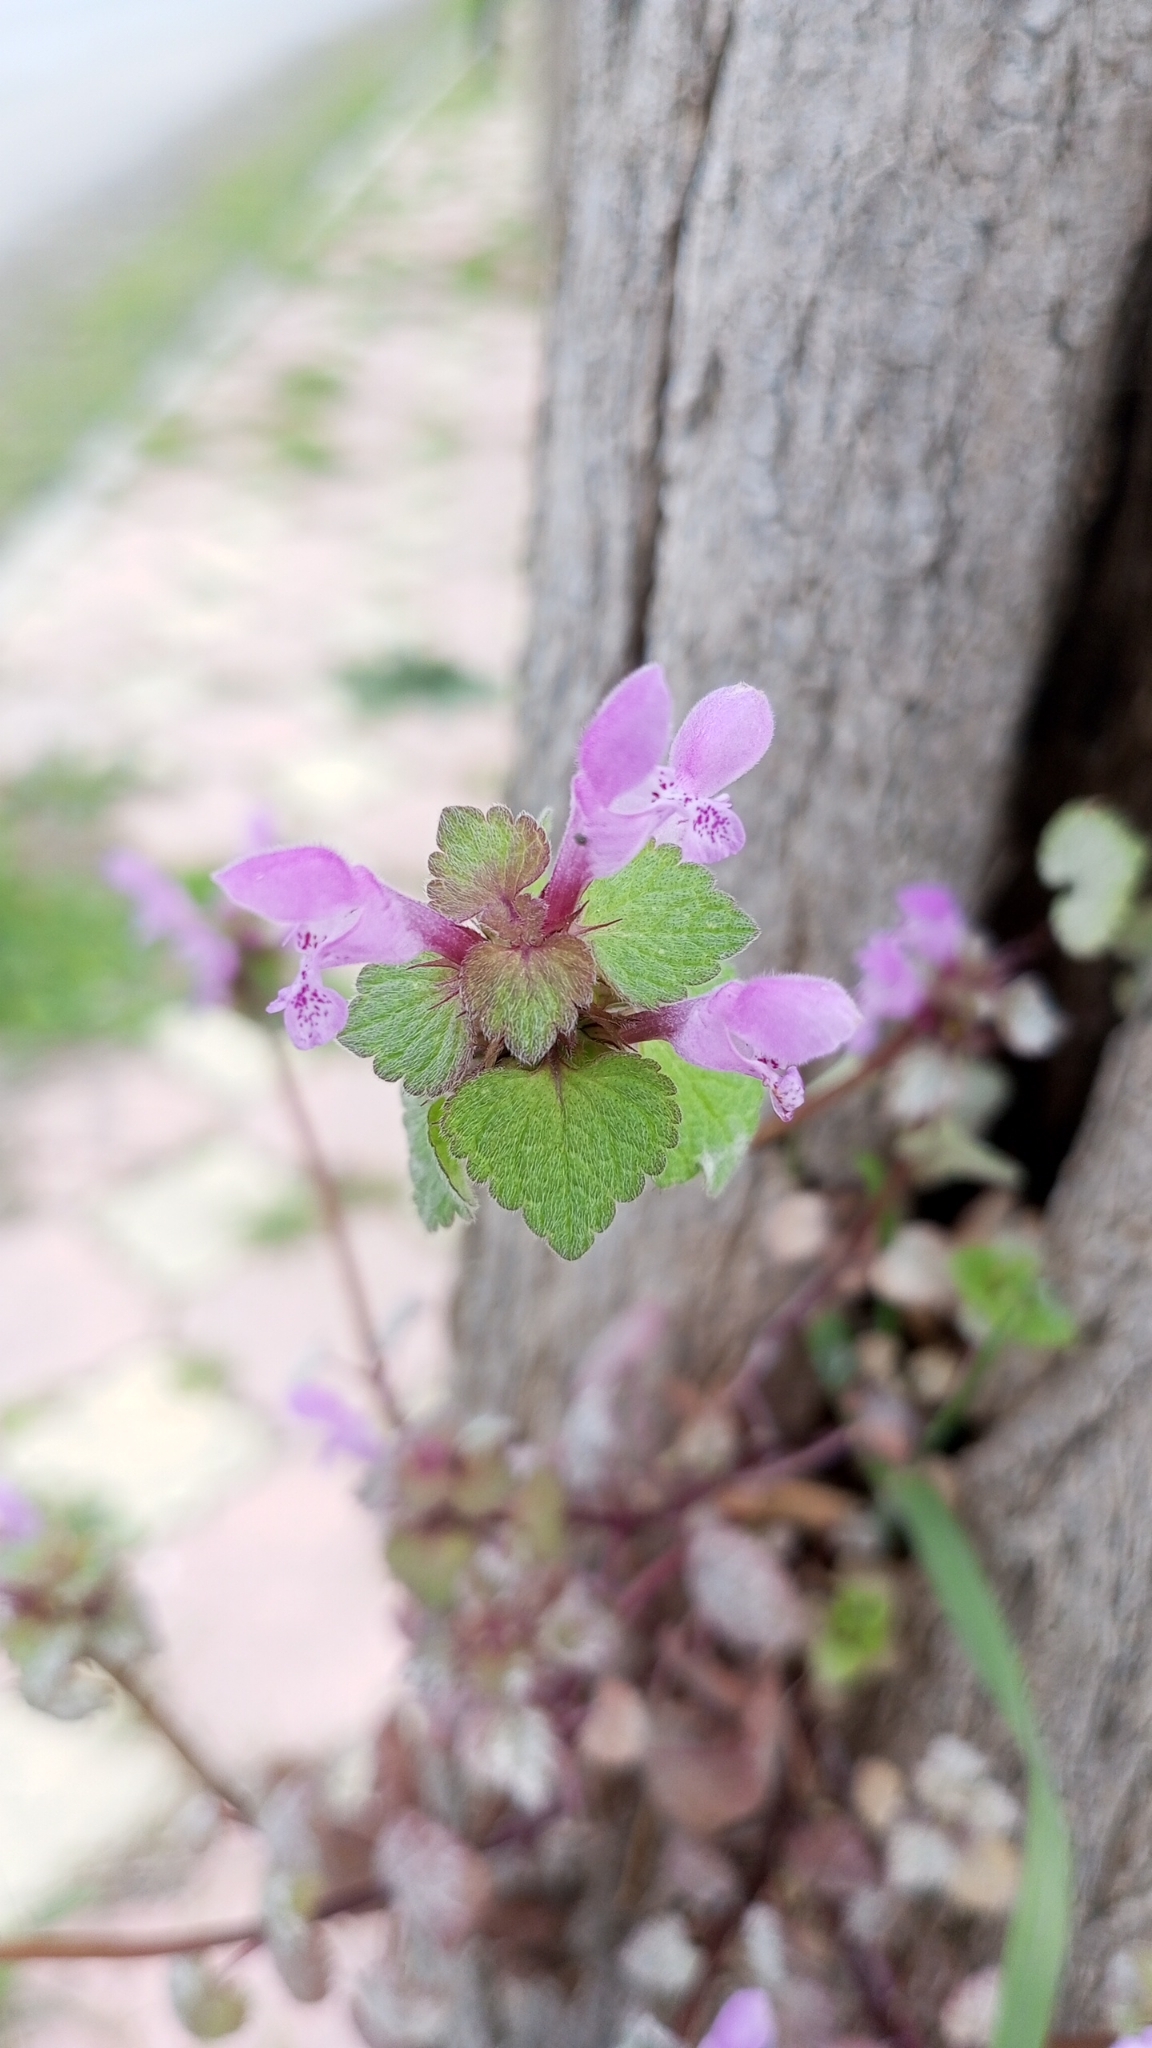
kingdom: Plantae
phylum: Tracheophyta
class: Magnoliopsida
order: Lamiales
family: Lamiaceae
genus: Lamium
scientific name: Lamium purpureum
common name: Red dead-nettle
